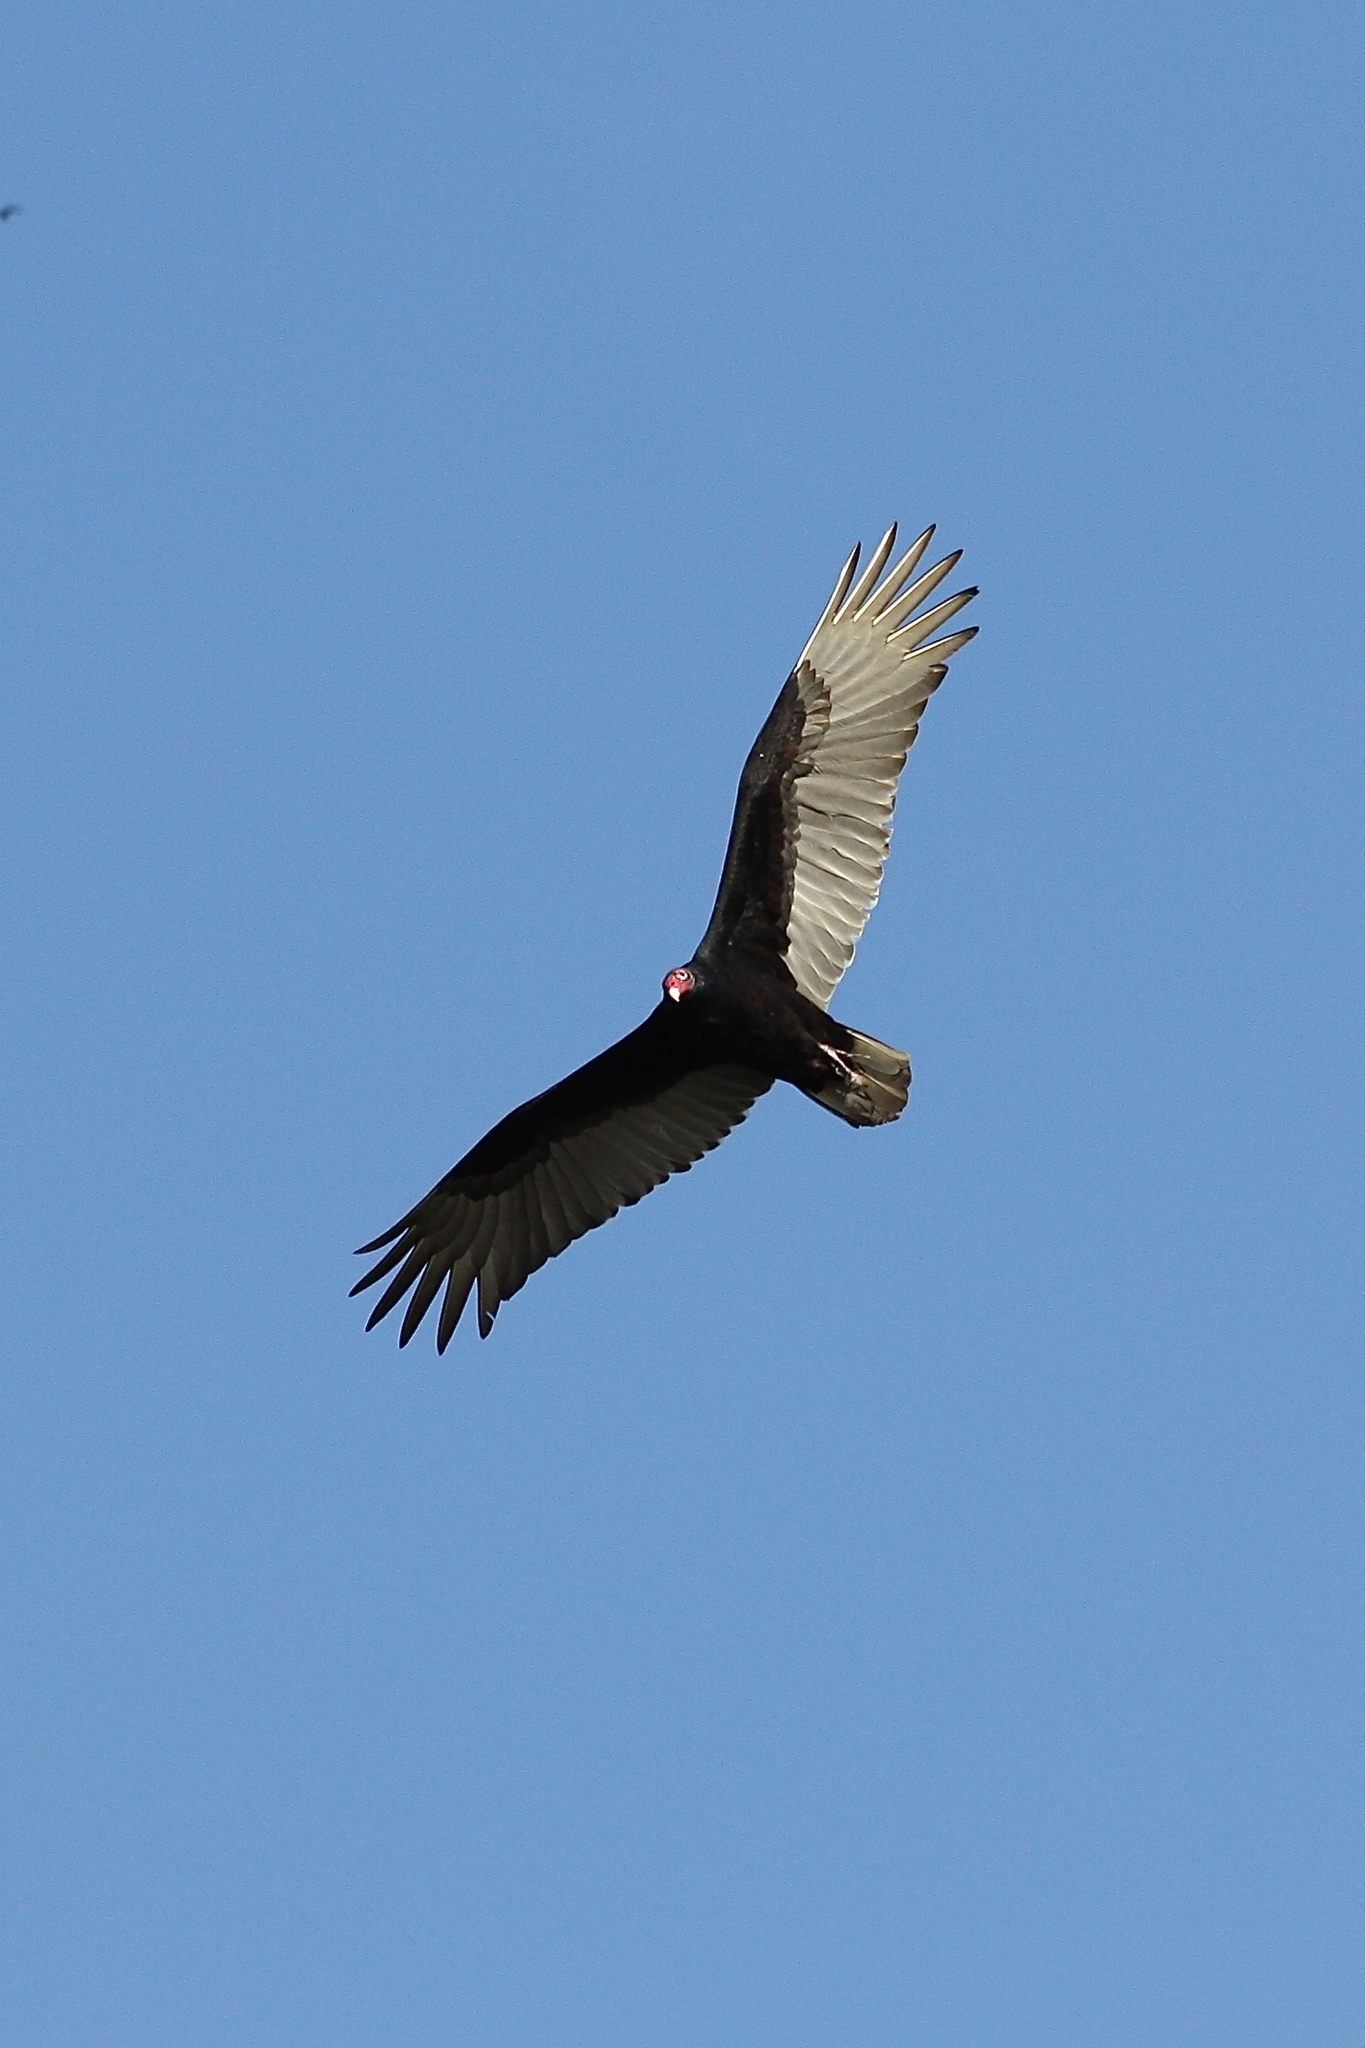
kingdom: Animalia
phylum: Chordata
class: Aves
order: Accipitriformes
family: Cathartidae
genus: Cathartes
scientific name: Cathartes aura
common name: Turkey vulture
